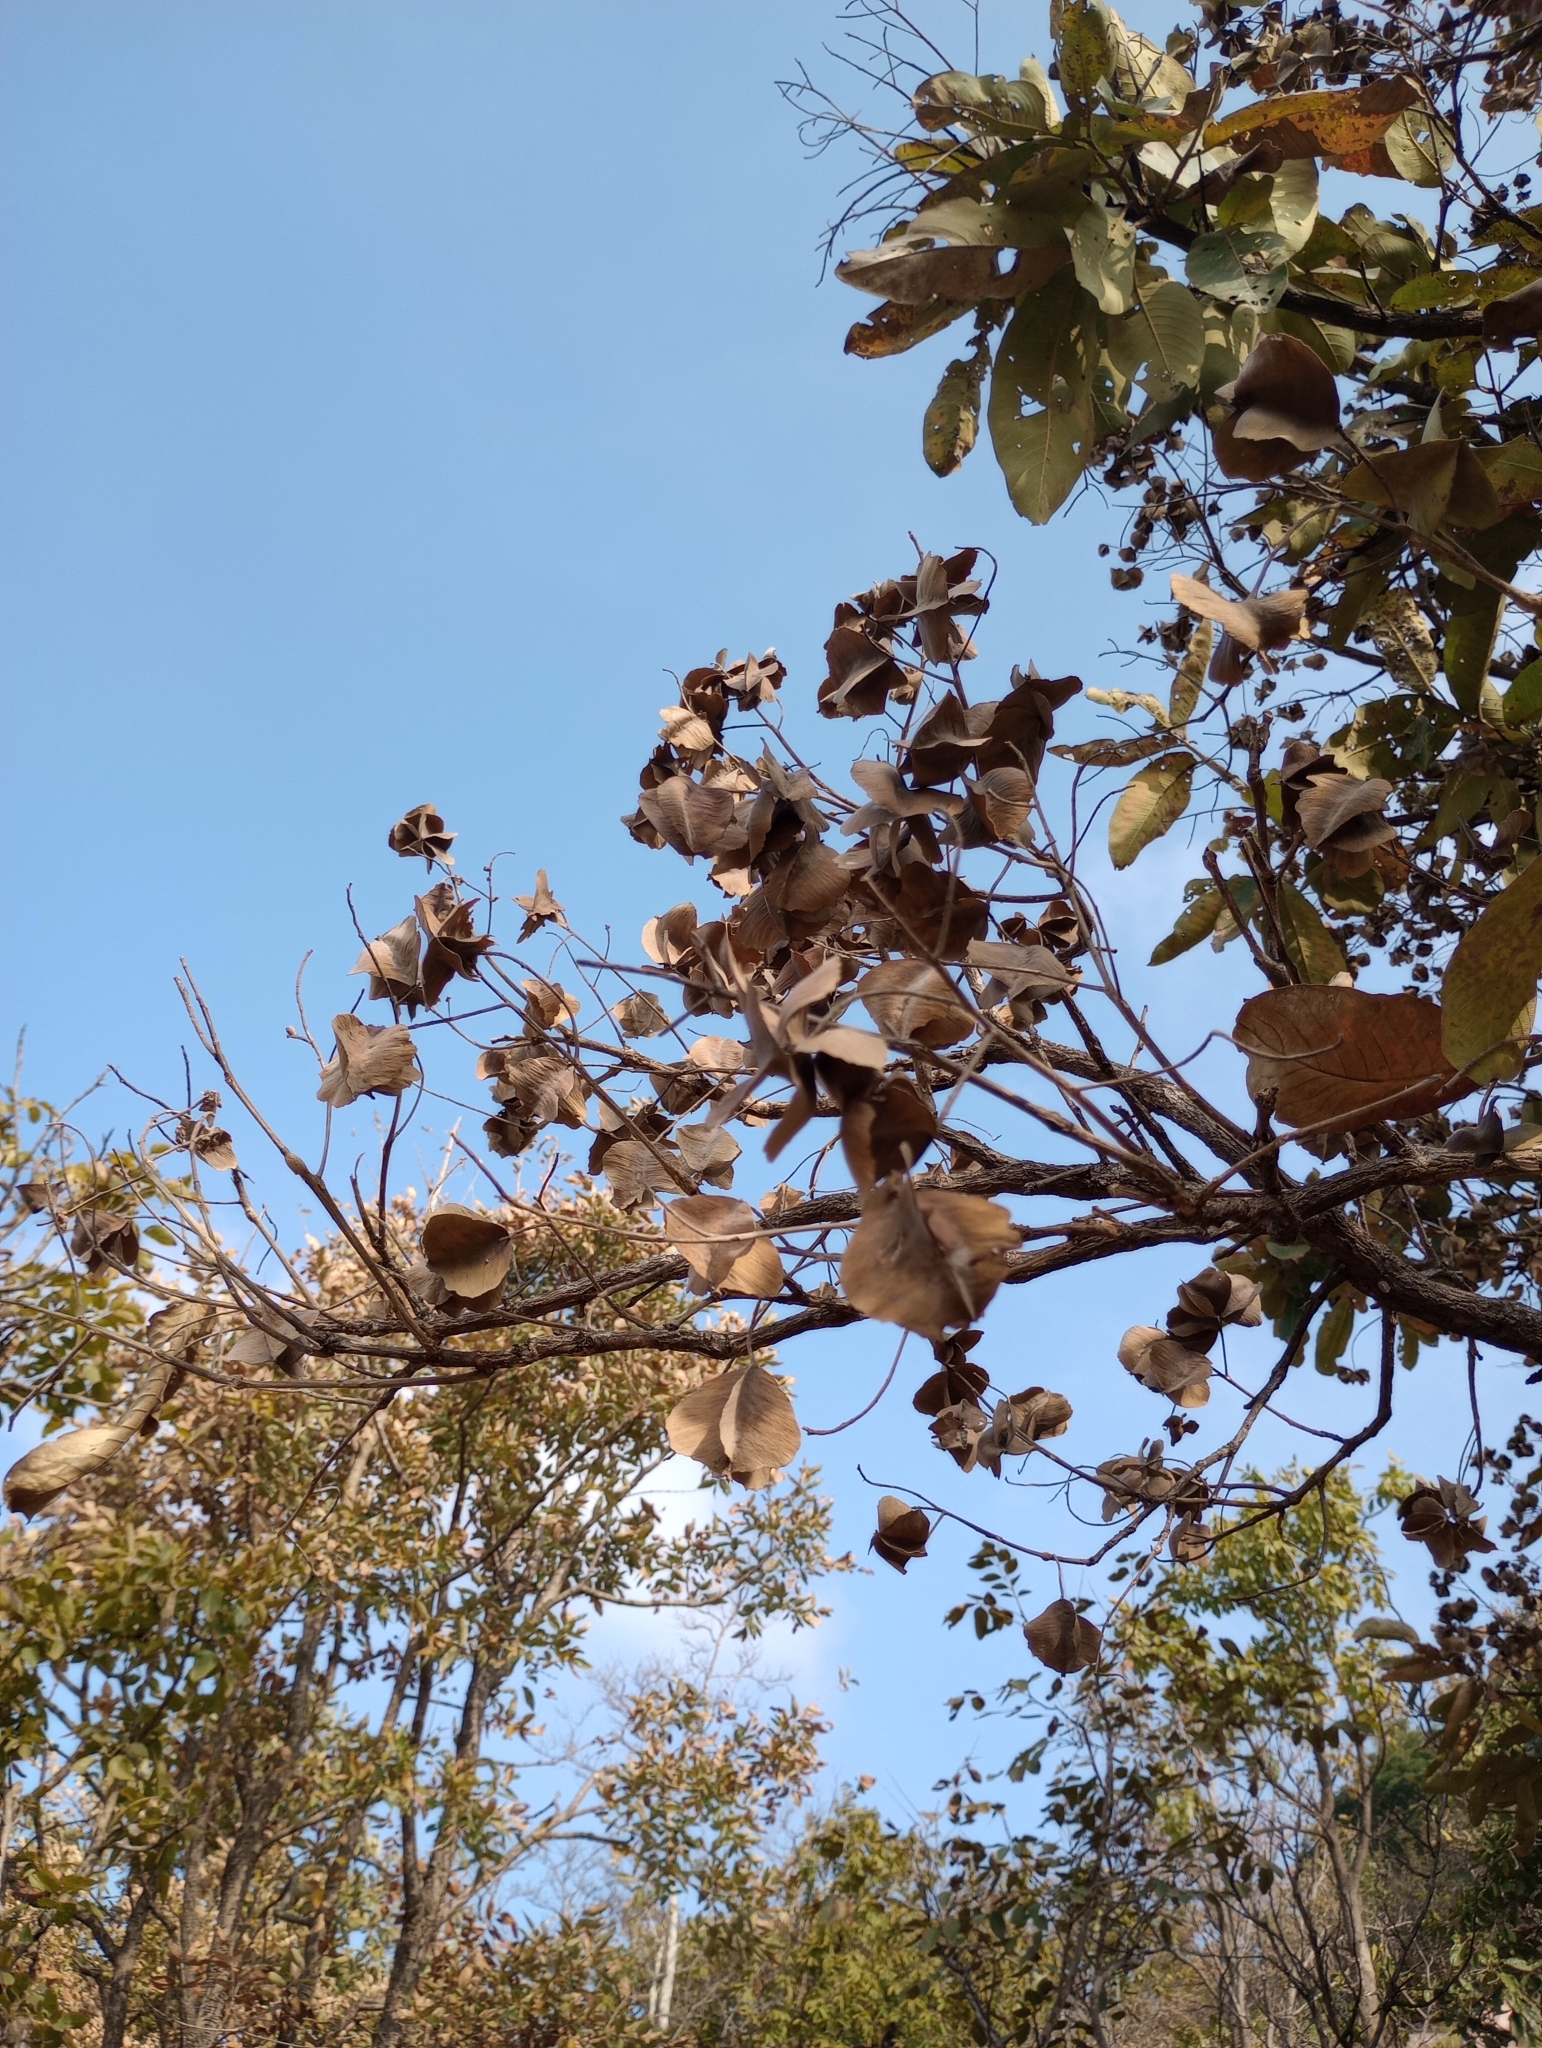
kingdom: Plantae
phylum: Tracheophyta
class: Magnoliopsida
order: Myrtales
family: Combretaceae
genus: Terminalia
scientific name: Terminalia elliptica
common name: Indian-laurel
